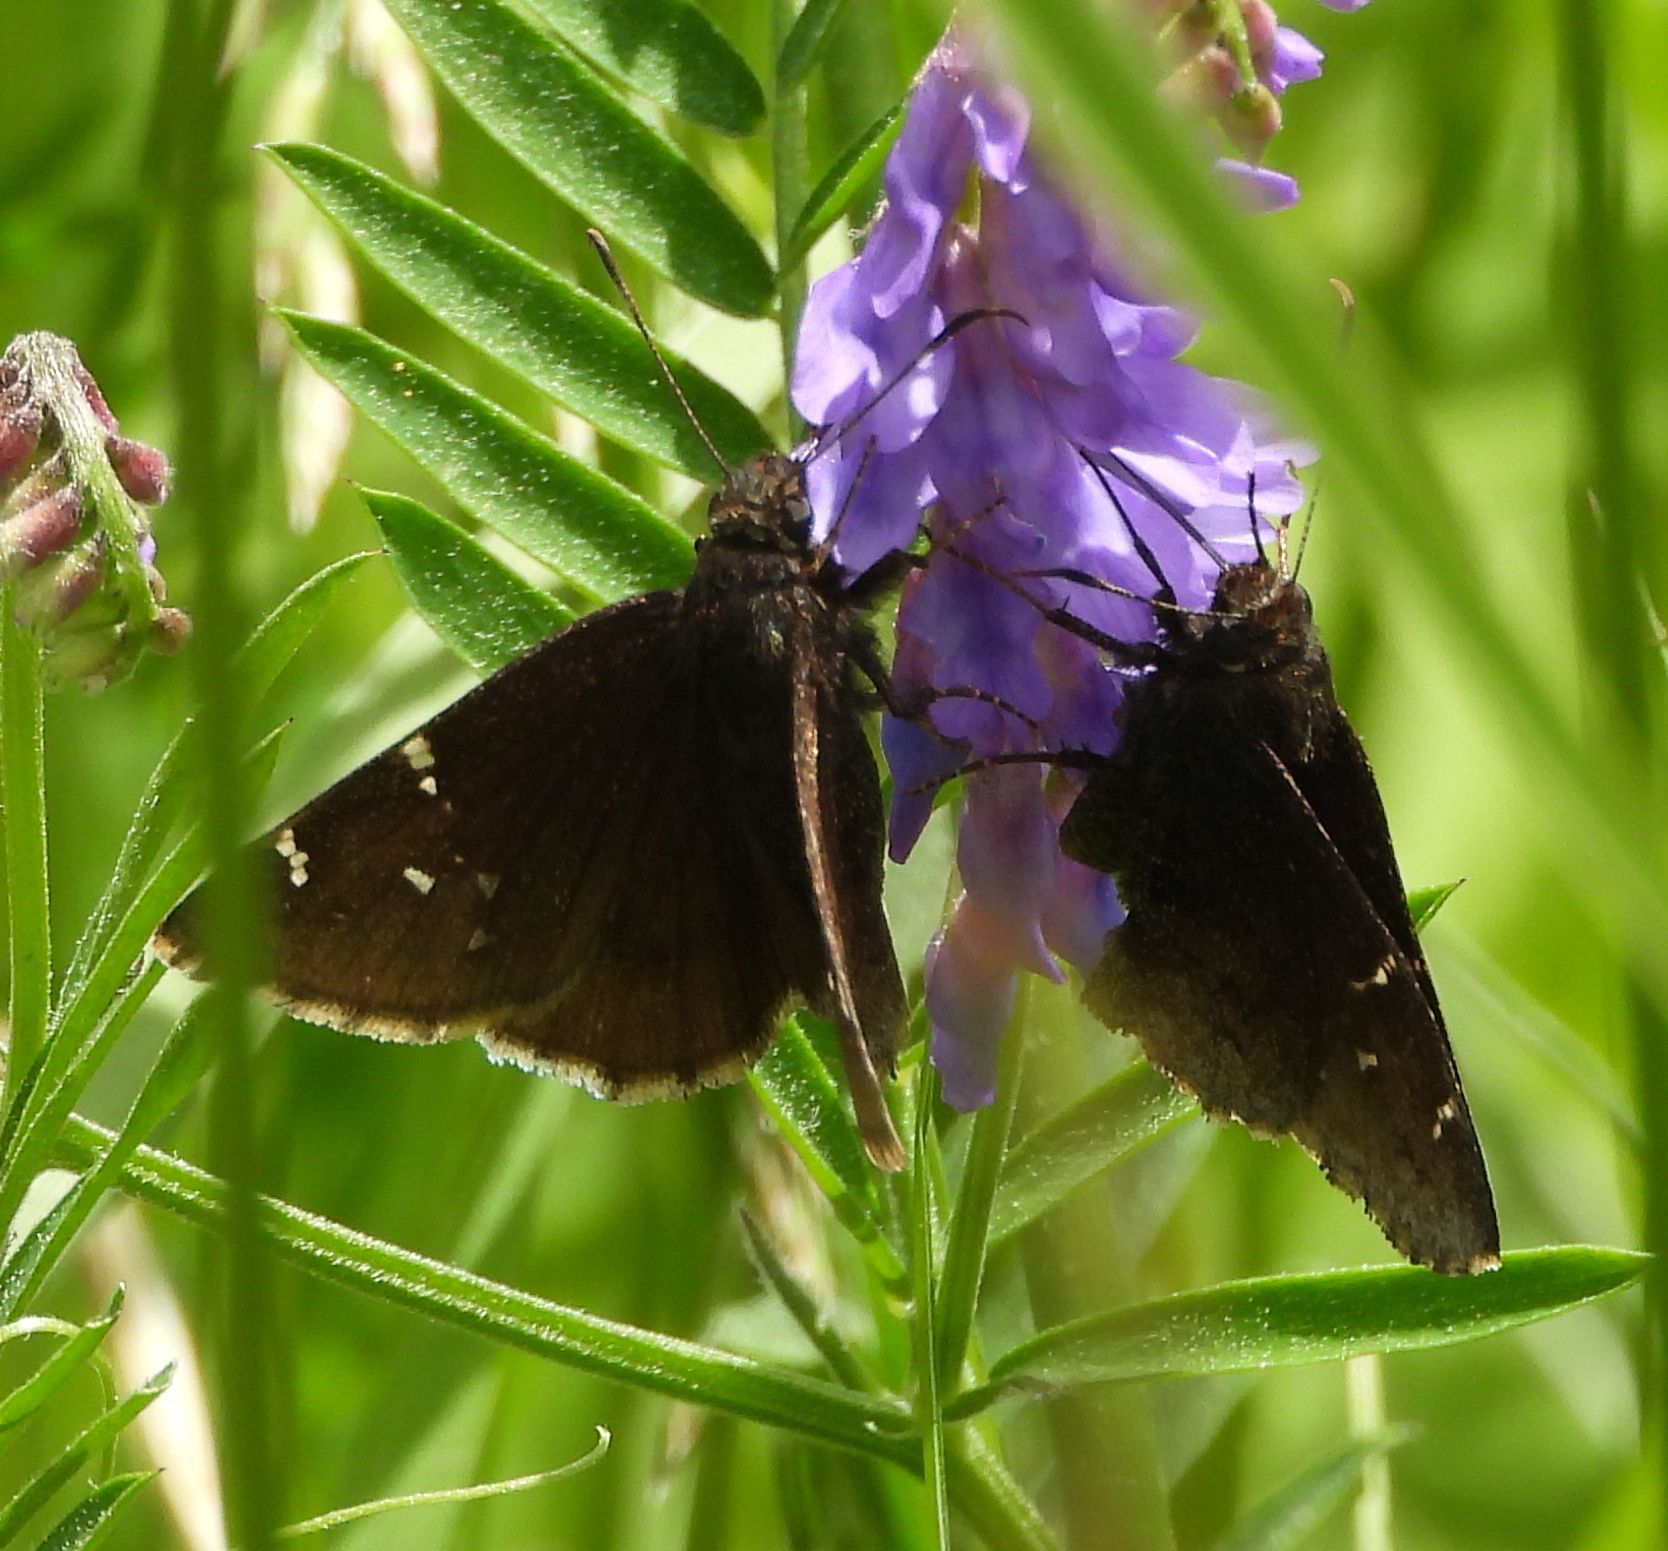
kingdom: Animalia
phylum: Arthropoda
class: Insecta
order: Lepidoptera
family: Hesperiidae
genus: Thorybes
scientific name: Thorybes pylades
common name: Northern cloudywing
